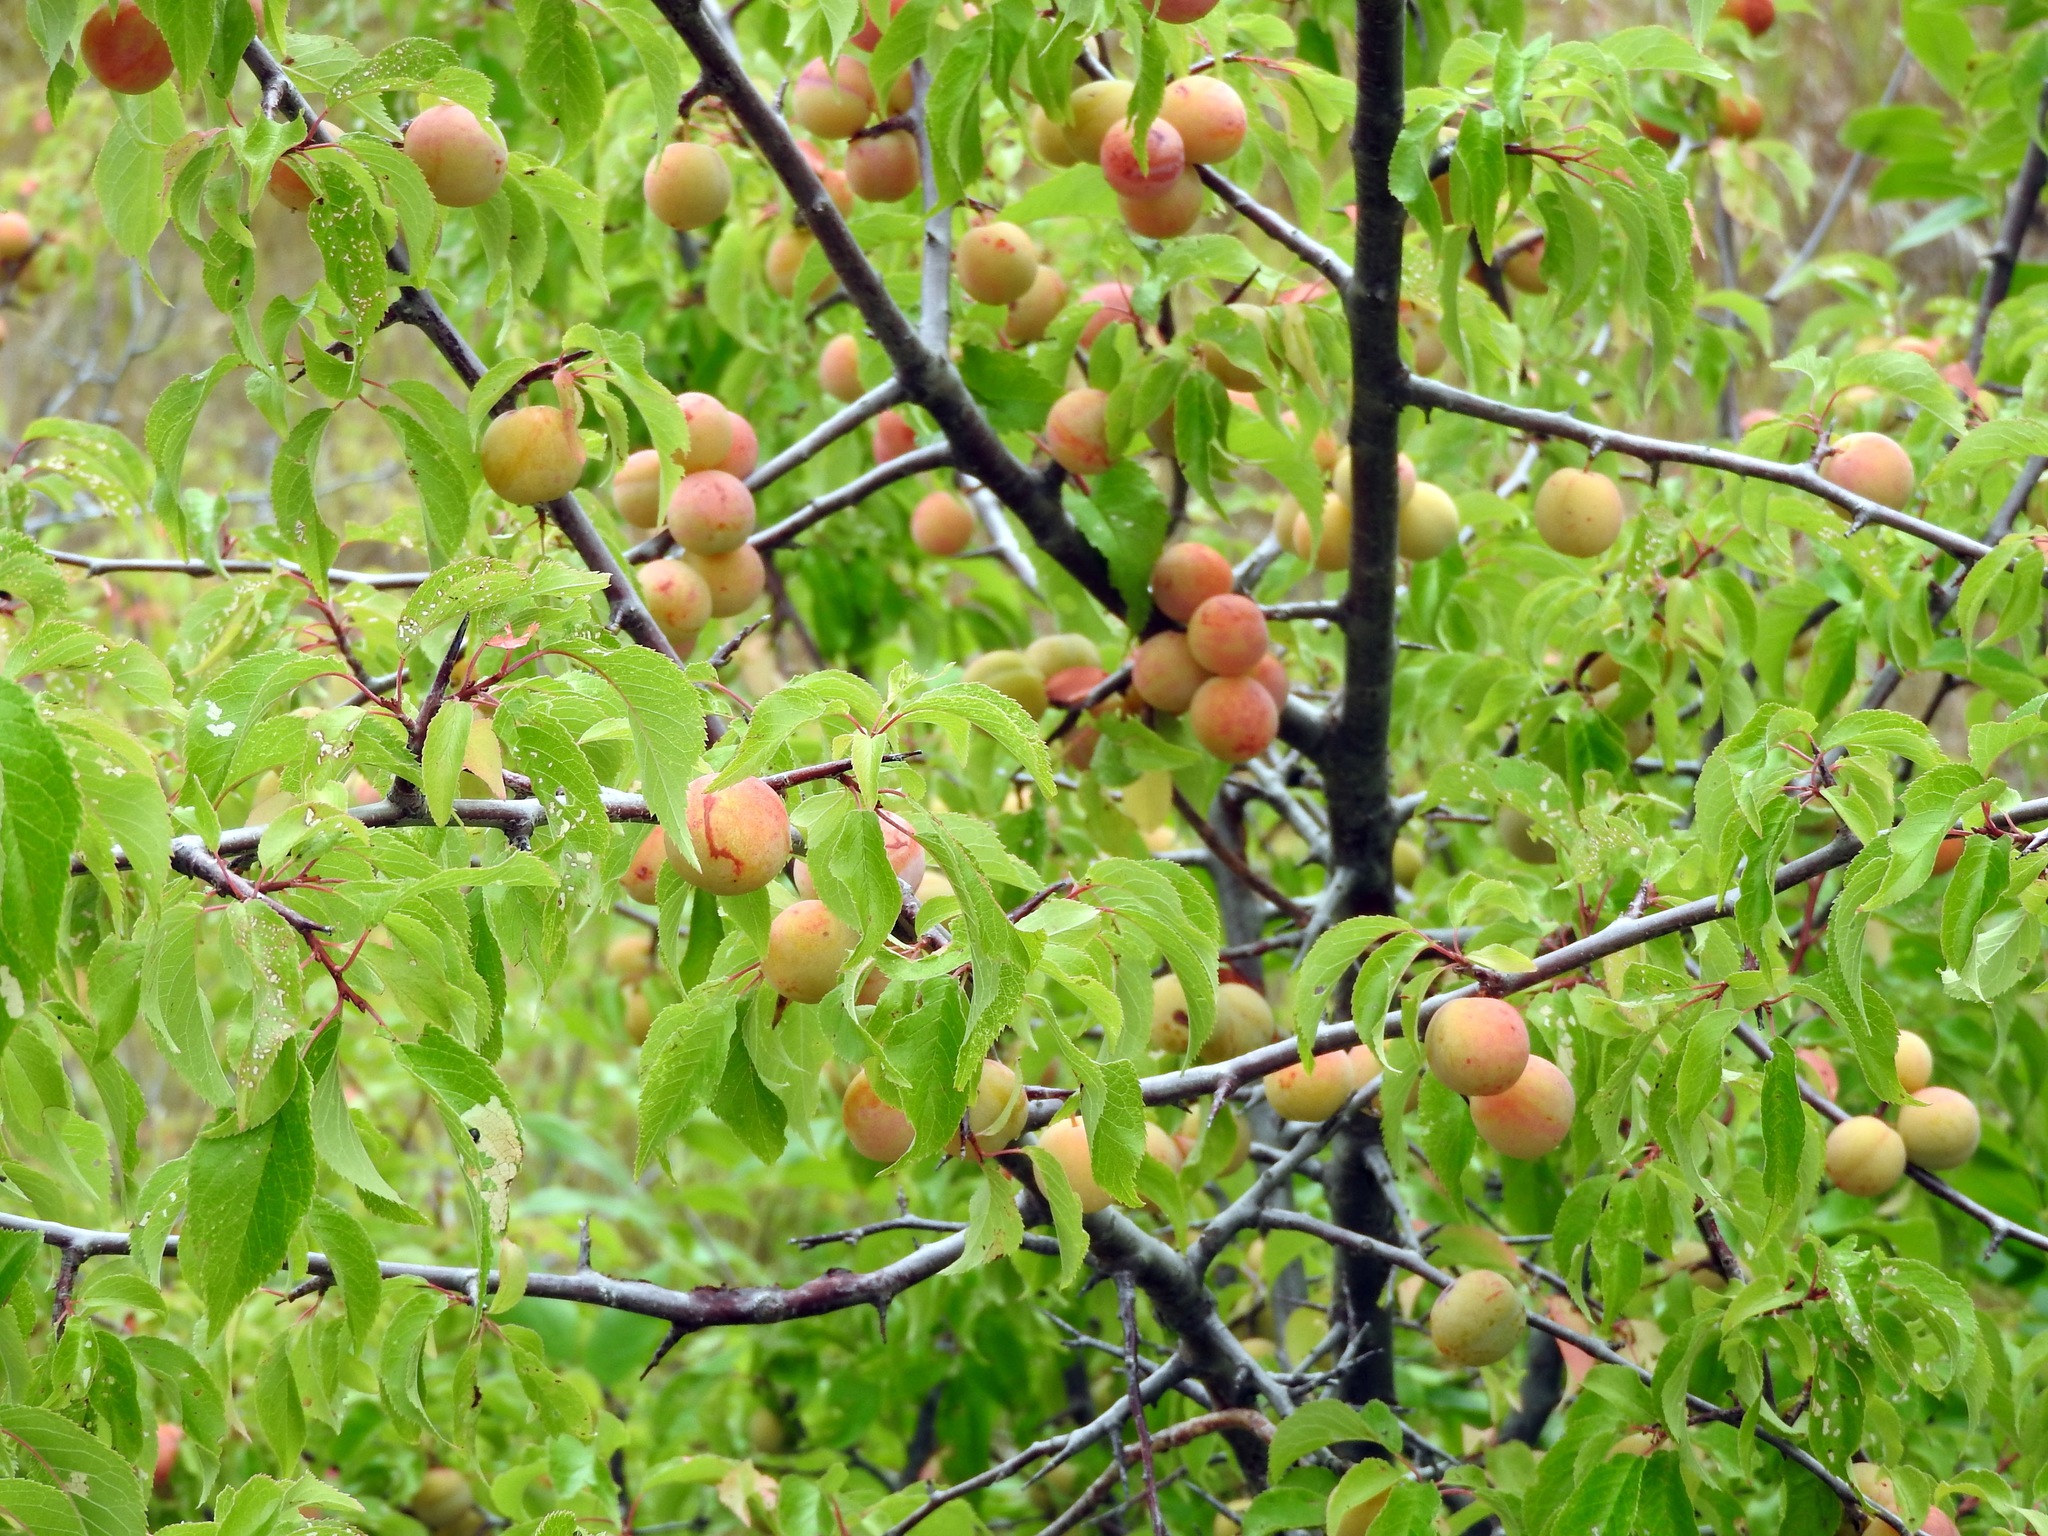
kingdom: Plantae
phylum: Tracheophyta
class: Magnoliopsida
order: Rosales
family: Rosaceae
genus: Prunus
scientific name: Prunus americana
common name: American plum
